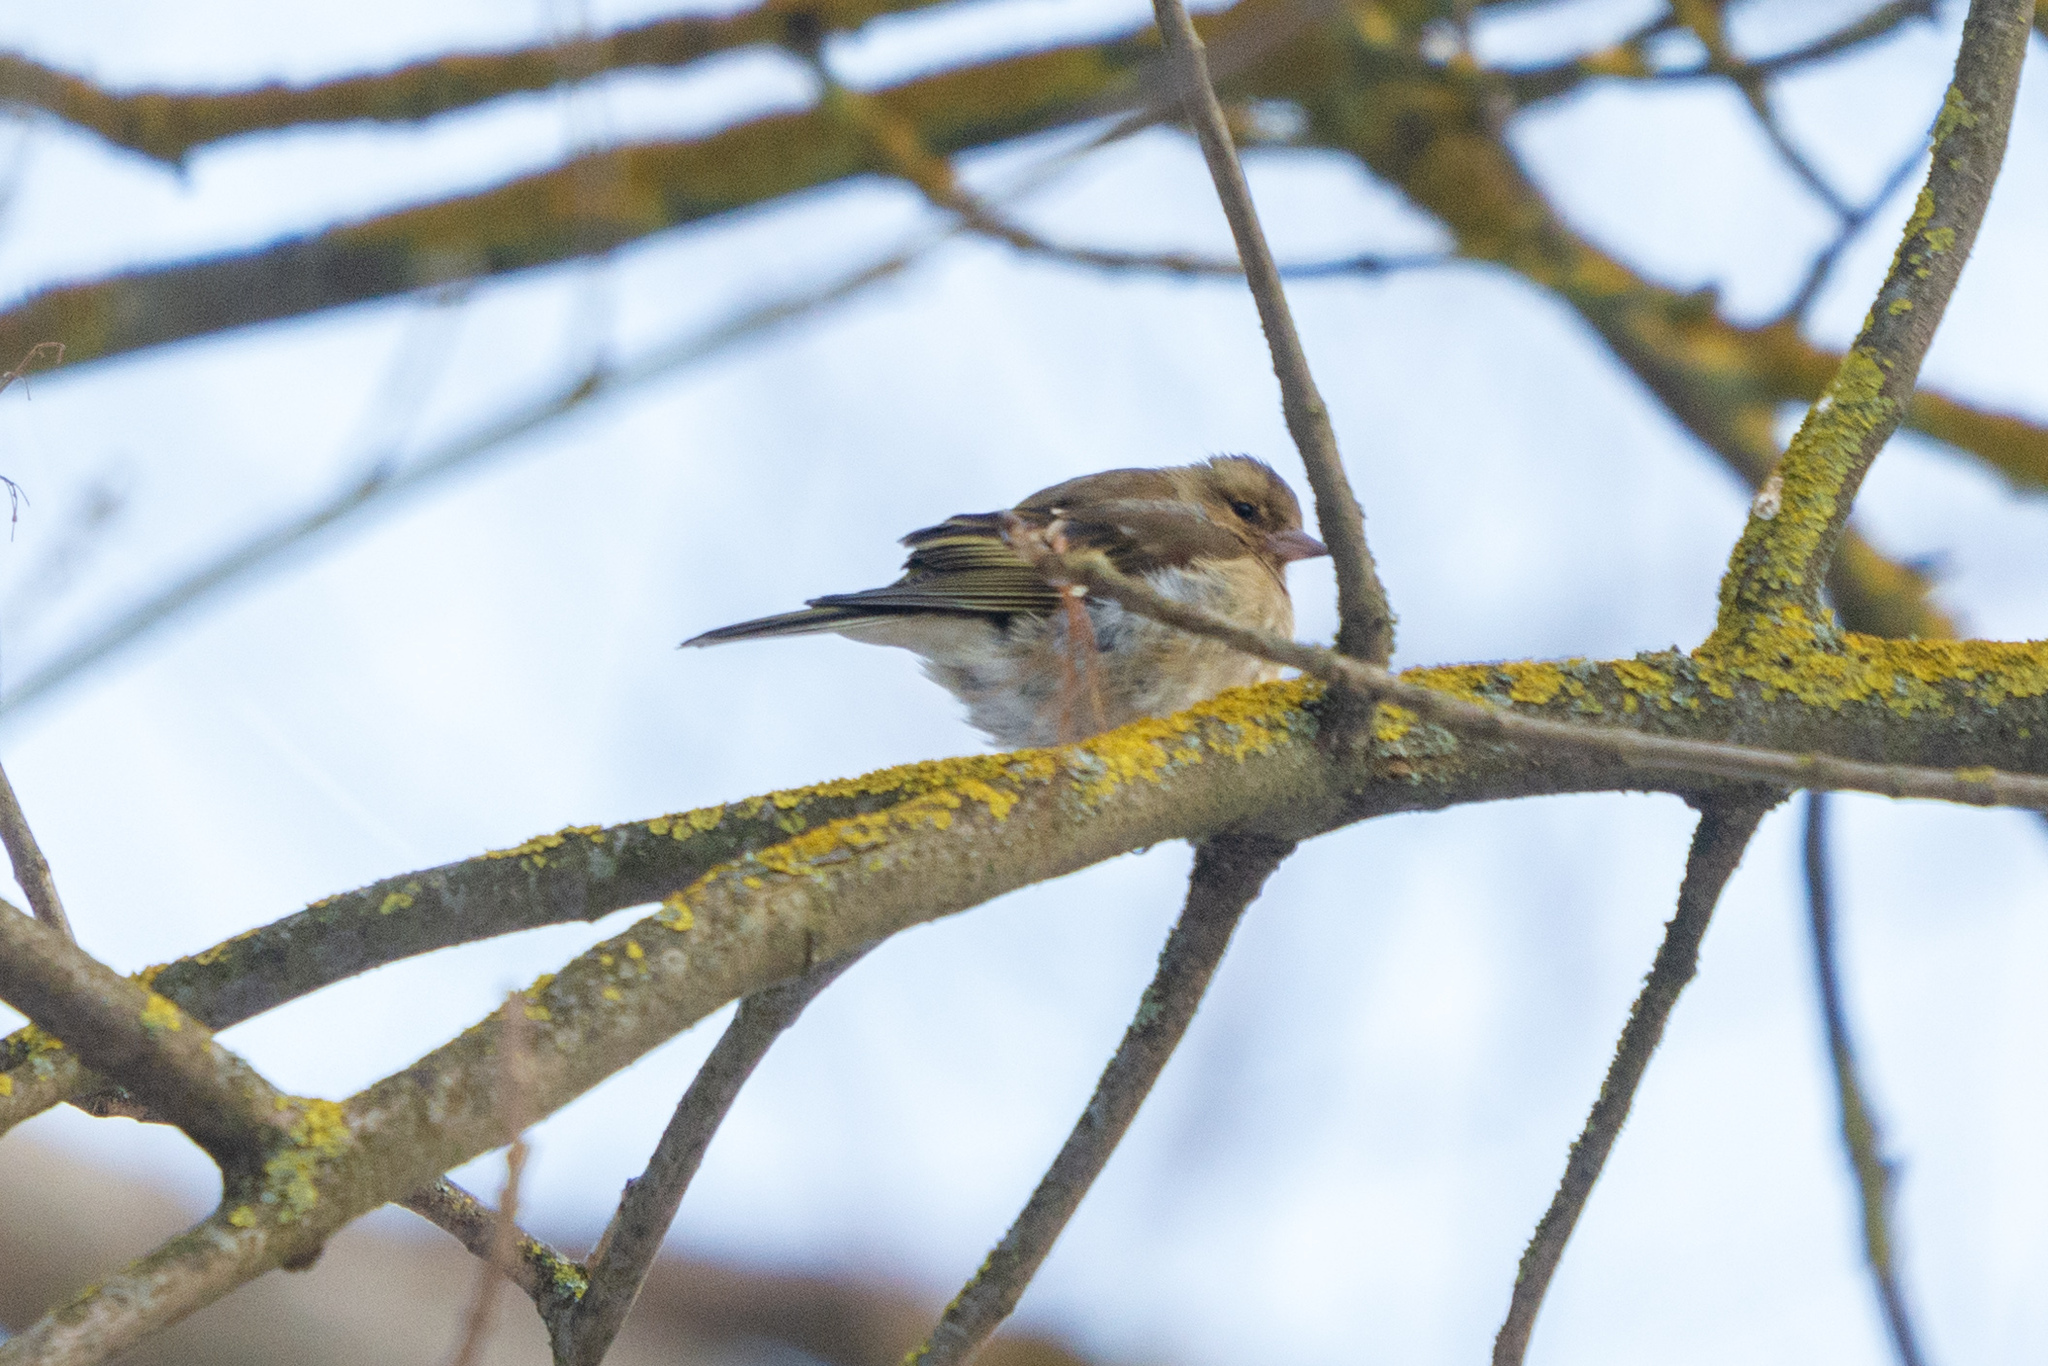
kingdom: Animalia
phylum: Chordata
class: Aves
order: Passeriformes
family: Fringillidae
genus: Fringilla
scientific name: Fringilla coelebs
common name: Common chaffinch
